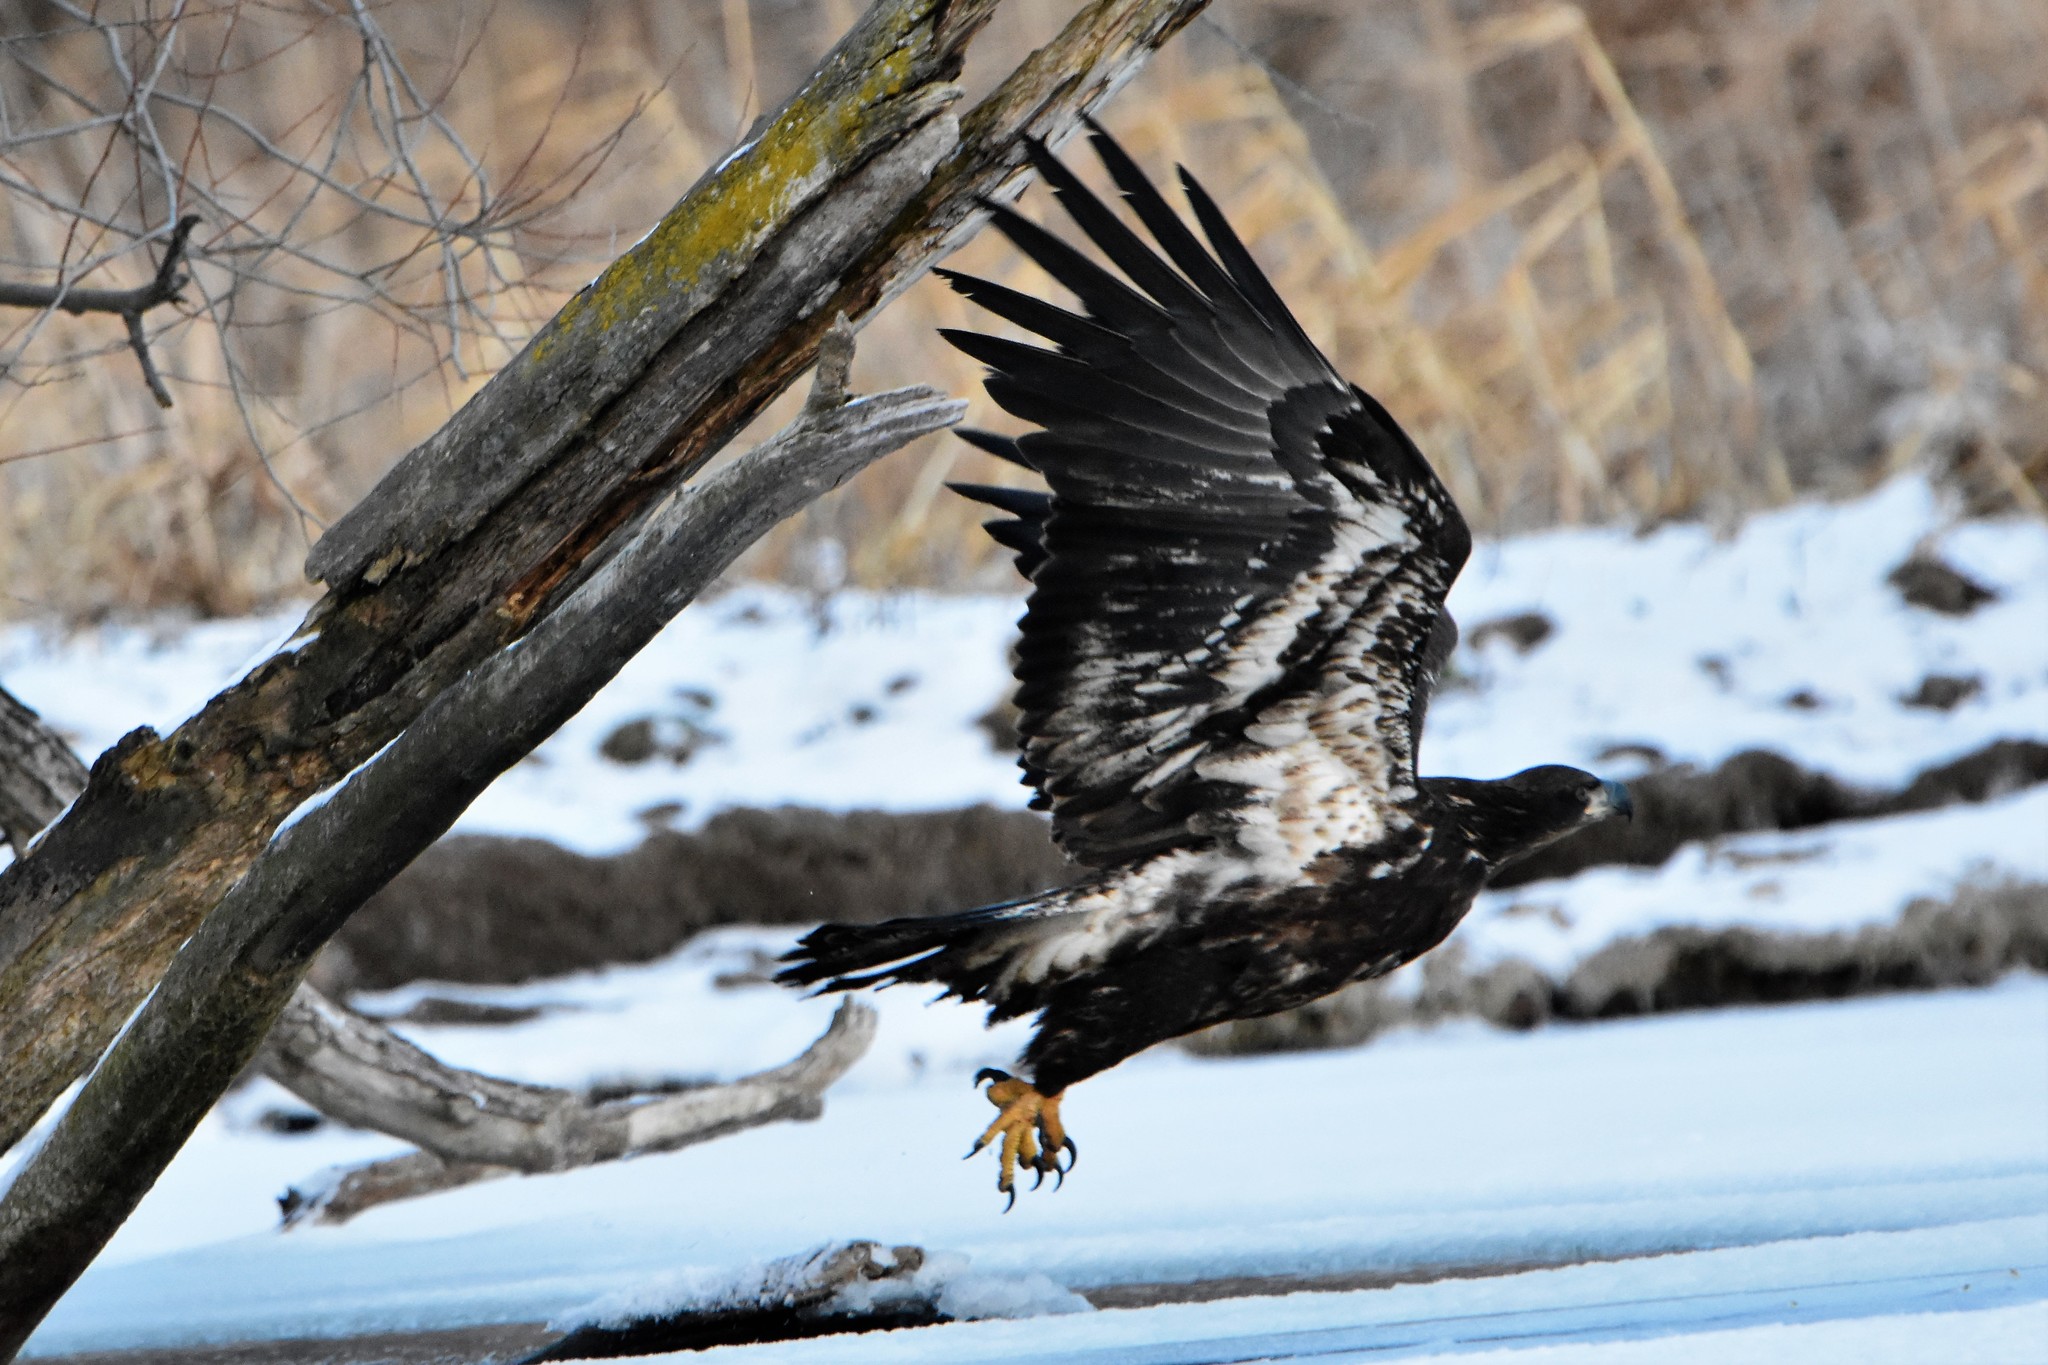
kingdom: Animalia
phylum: Chordata
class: Aves
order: Accipitriformes
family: Accipitridae
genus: Haliaeetus
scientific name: Haliaeetus leucocephalus
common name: Bald eagle
